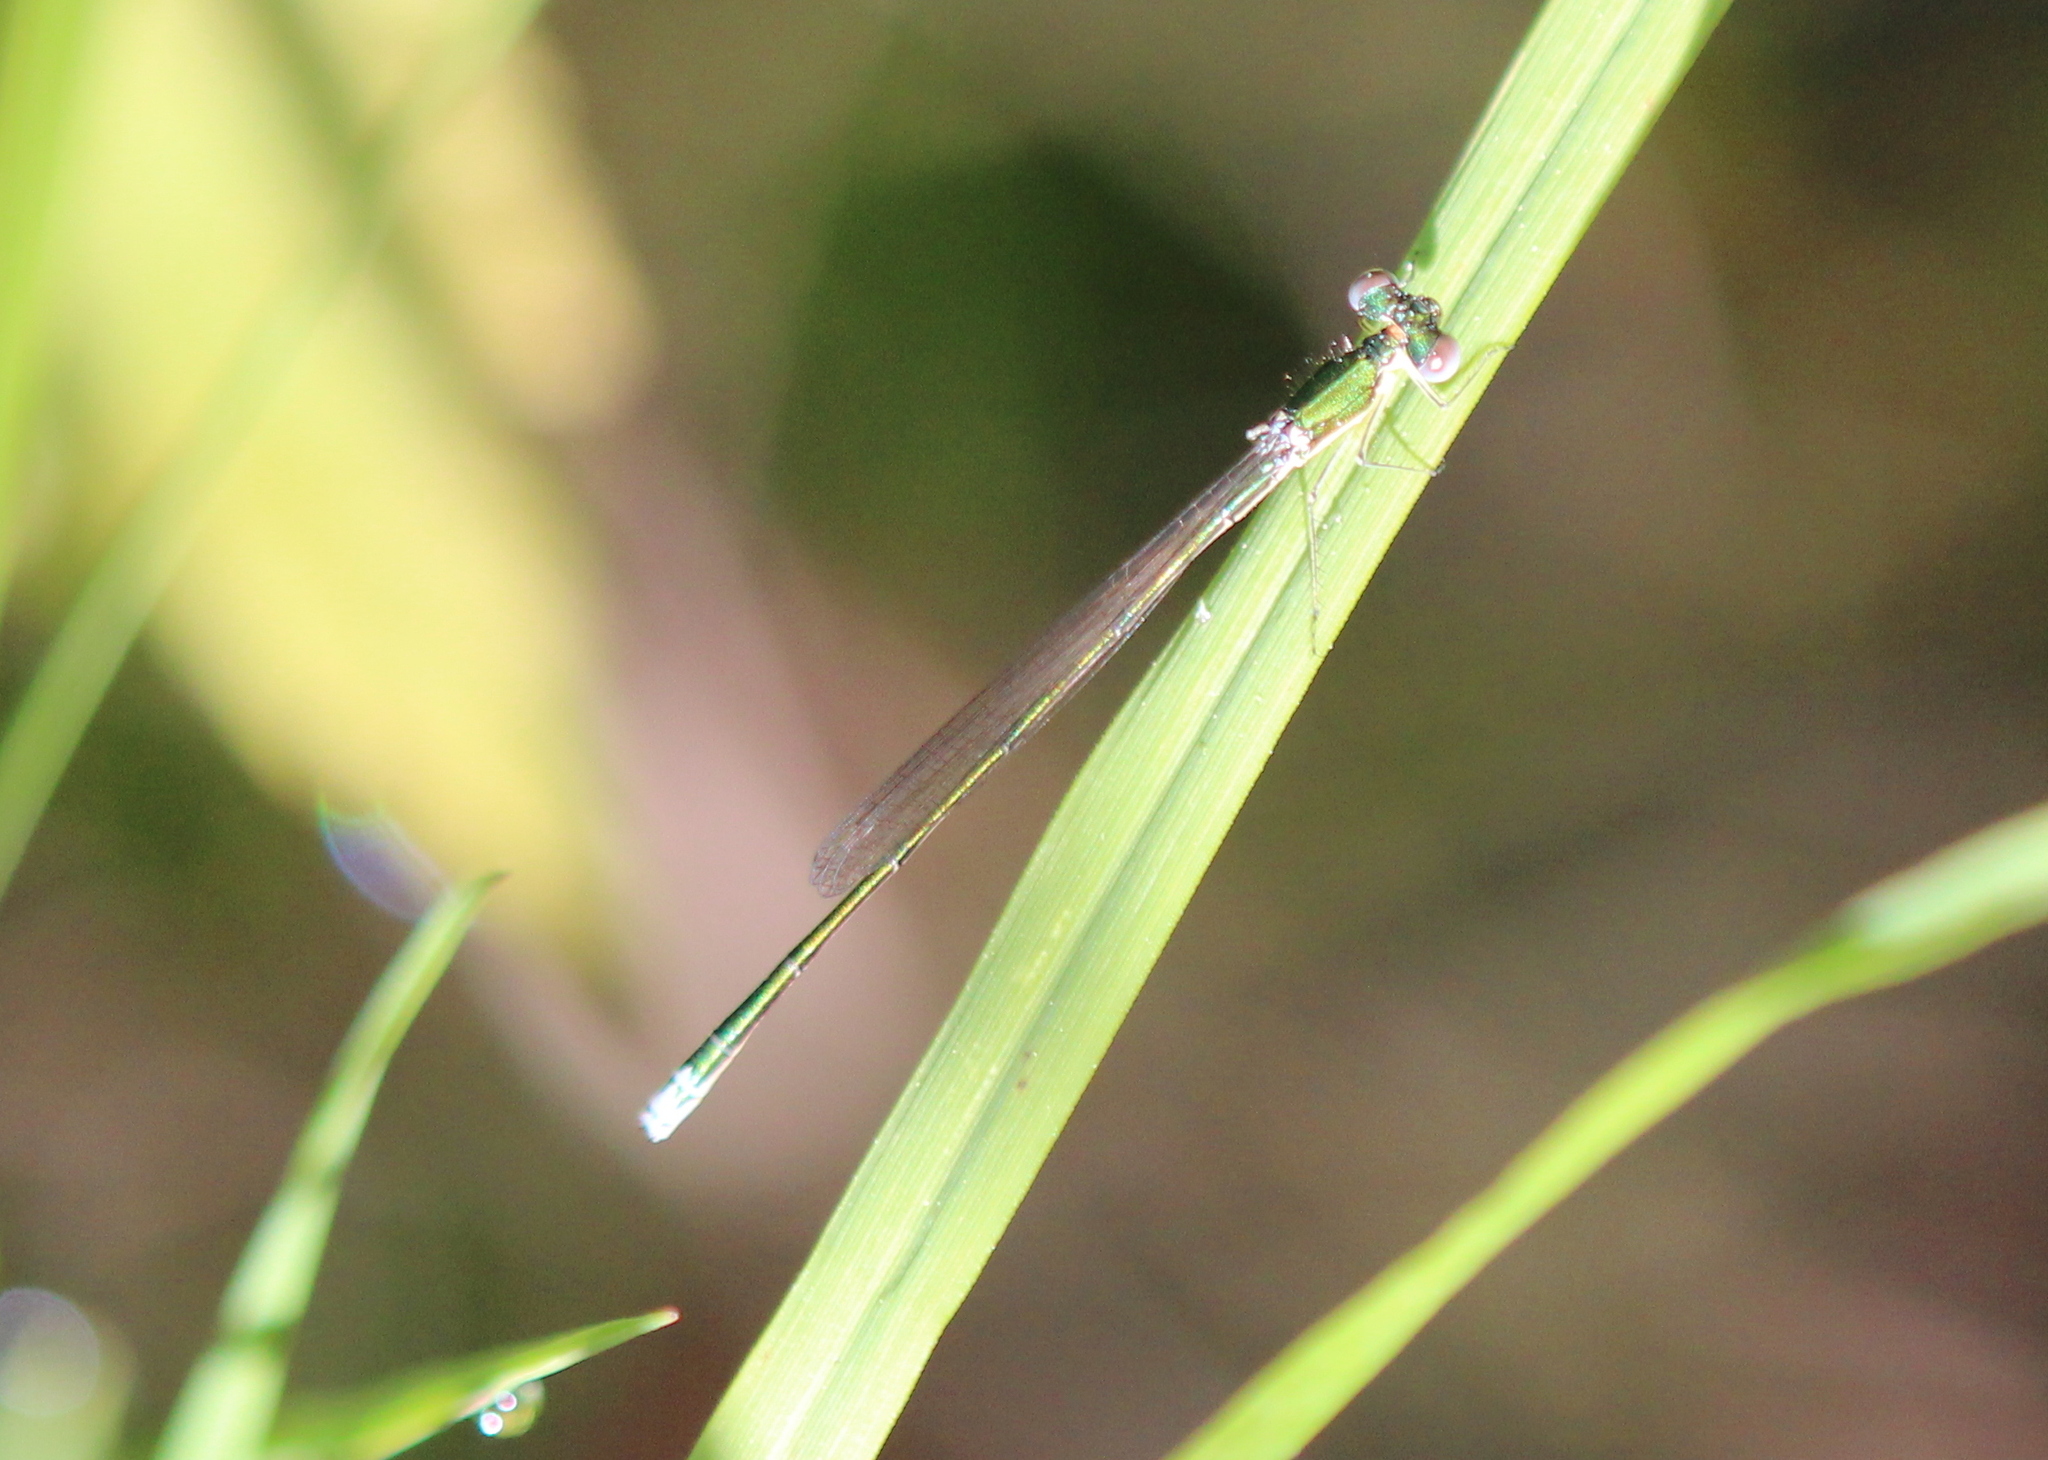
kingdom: Animalia
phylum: Arthropoda
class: Insecta
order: Odonata
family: Coenagrionidae
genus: Nehalennia
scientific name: Nehalennia irene
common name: Sedge sprite
